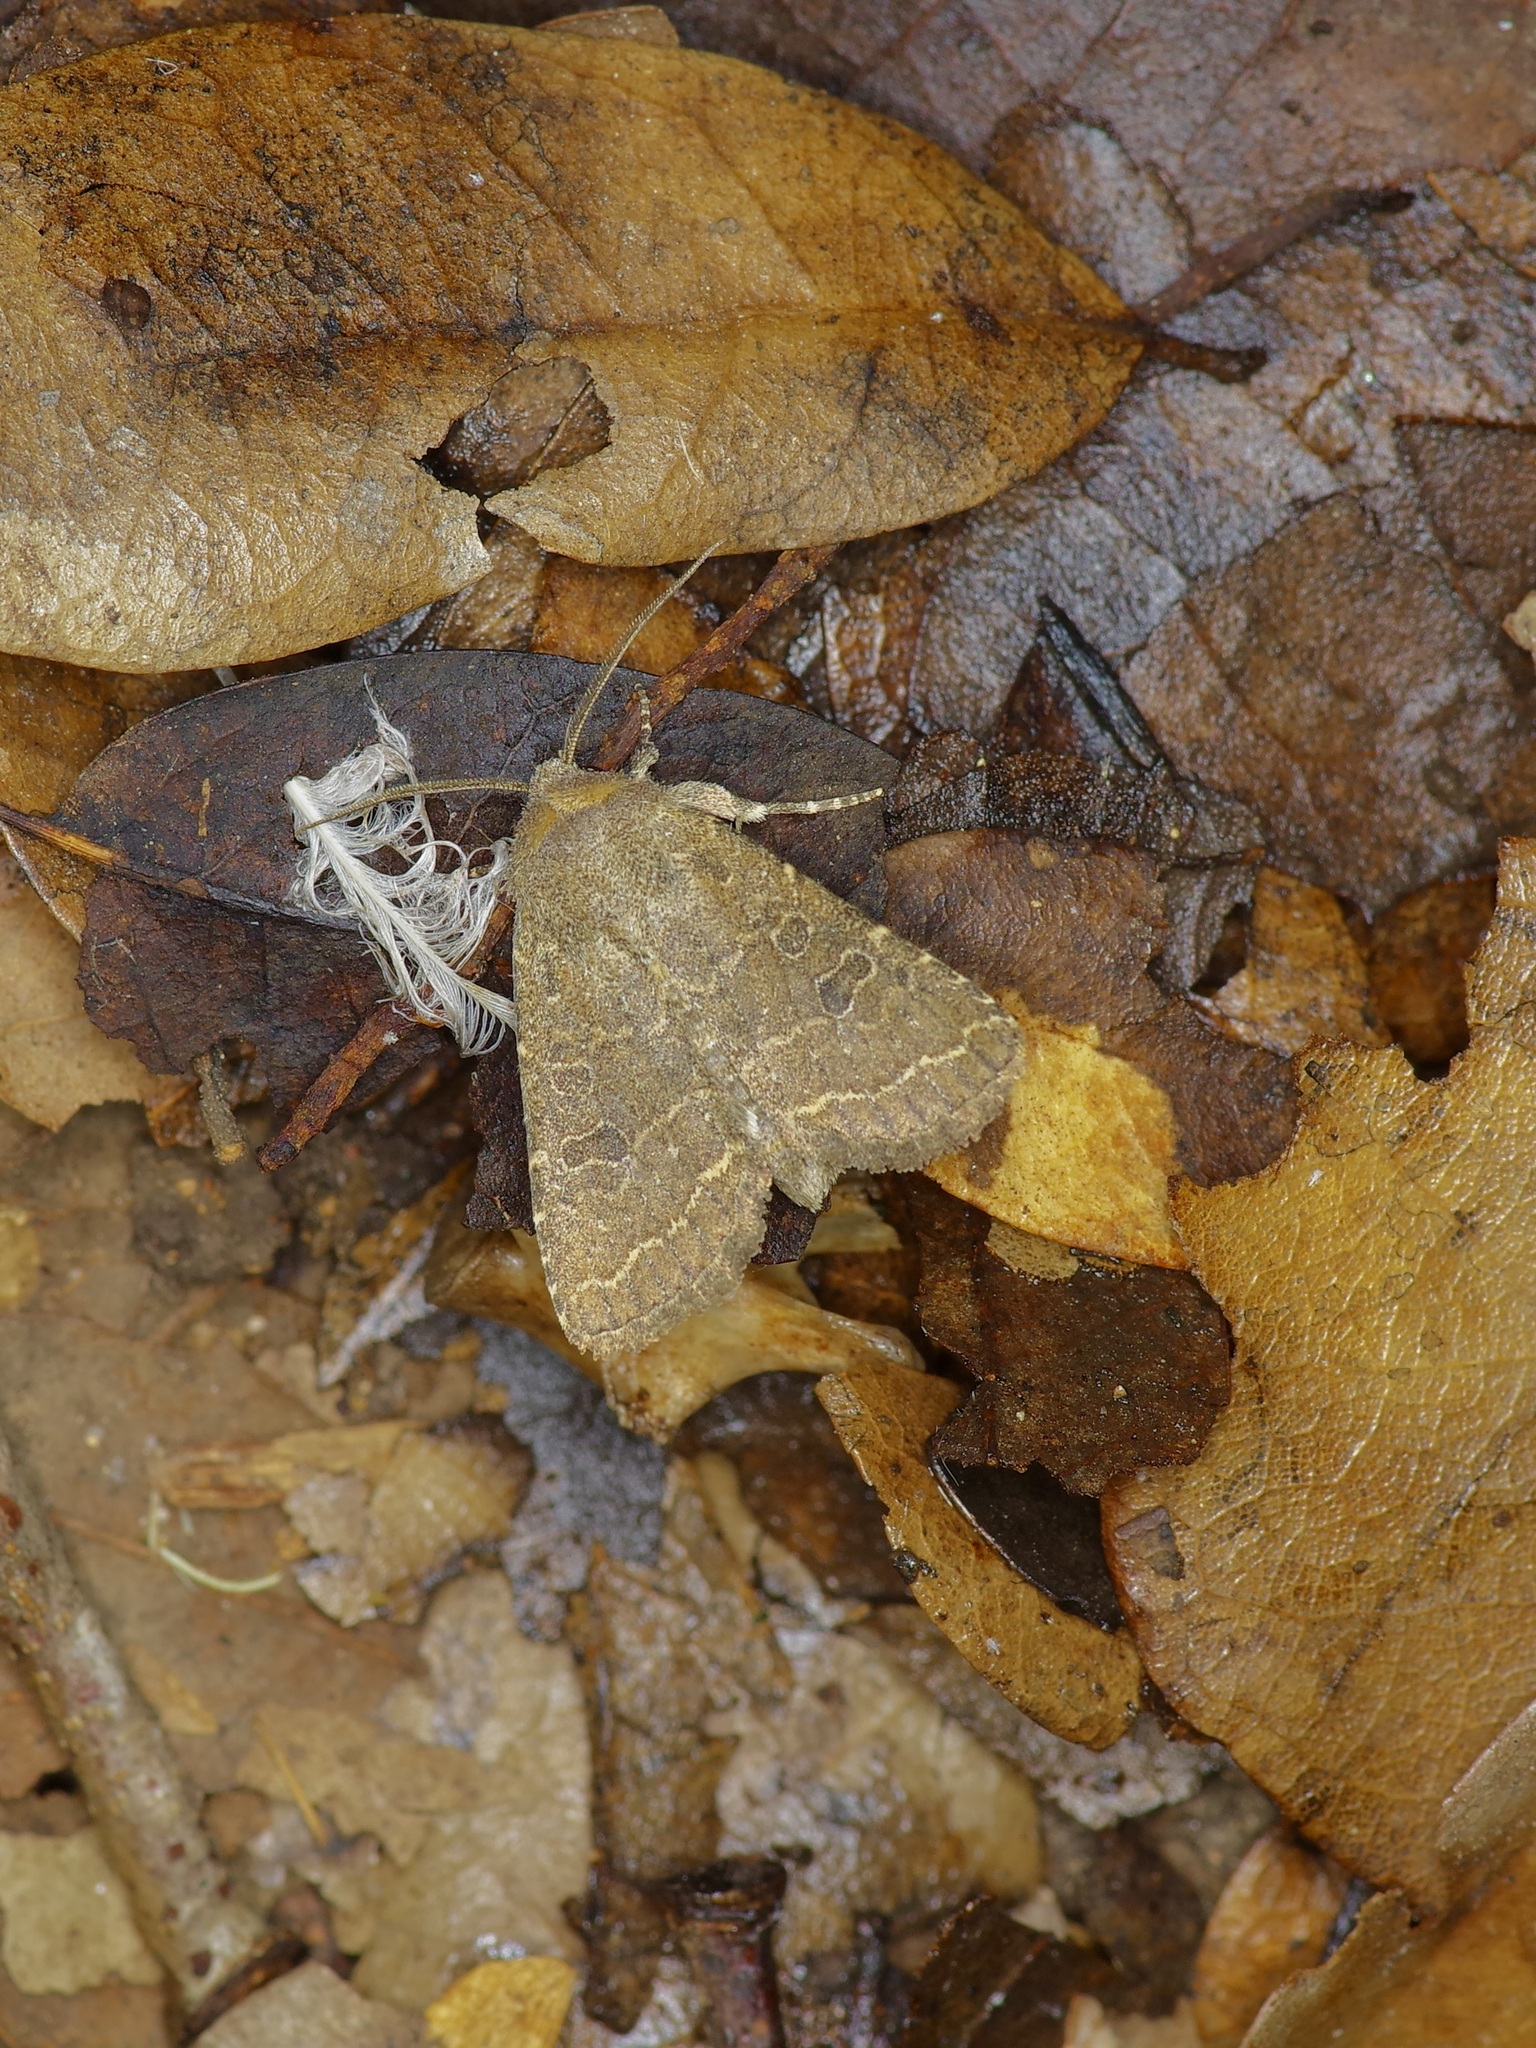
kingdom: Animalia
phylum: Arthropoda
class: Insecta
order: Lepidoptera
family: Noctuidae
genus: Trichopolia
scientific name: Trichopolia
